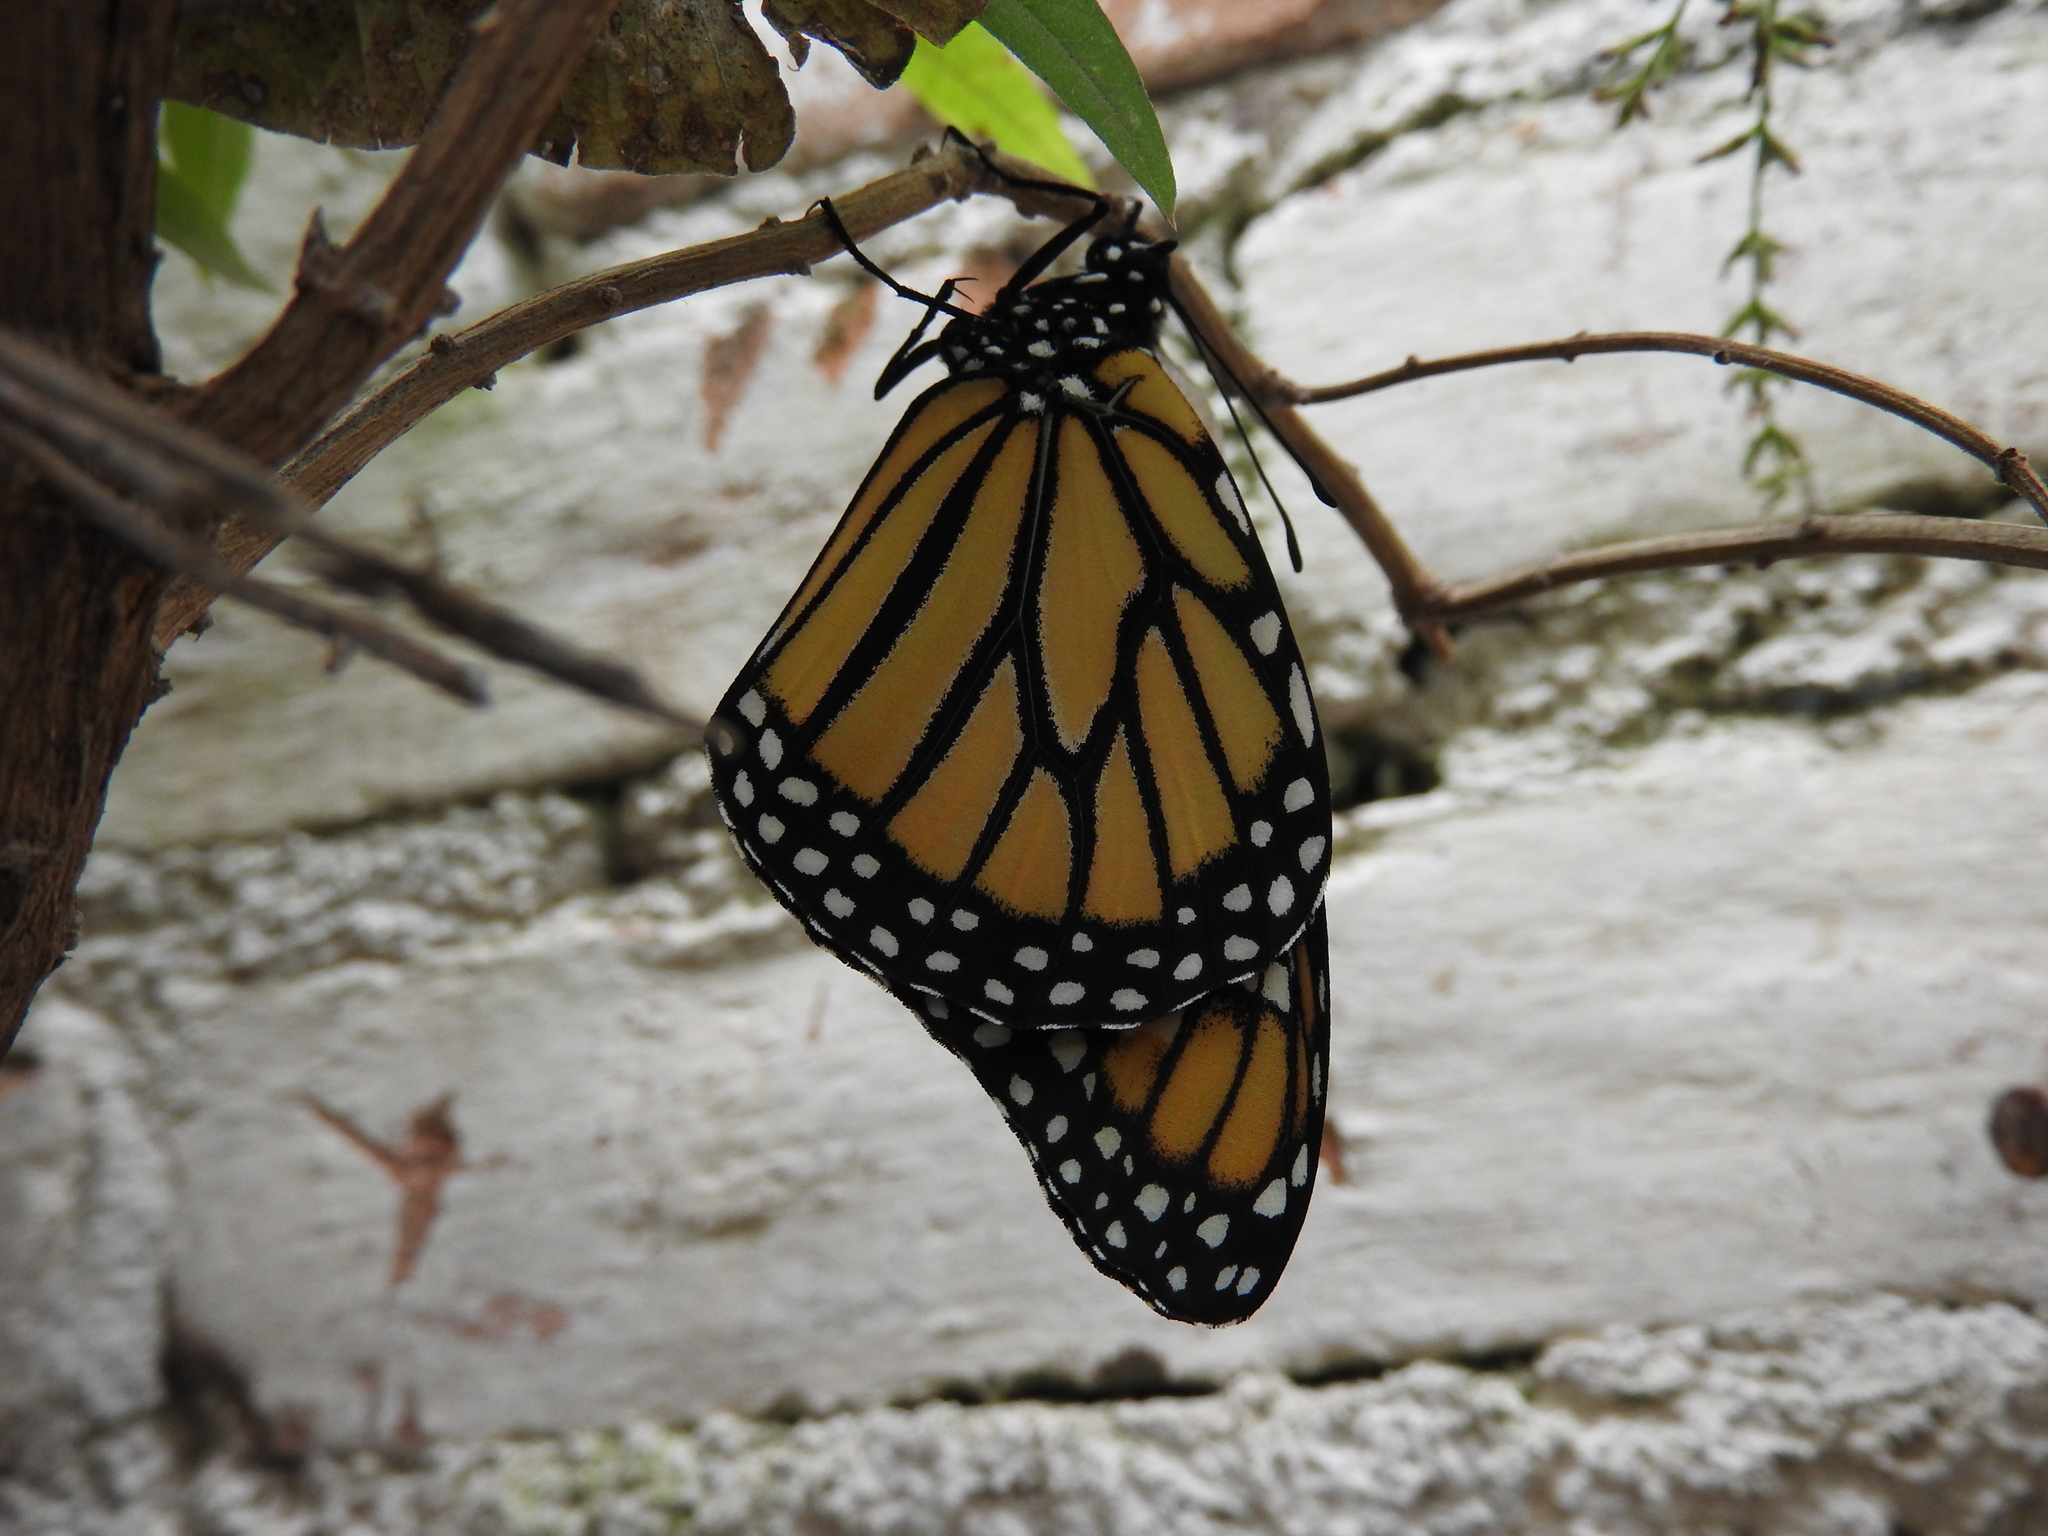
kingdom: Animalia
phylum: Arthropoda
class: Insecta
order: Lepidoptera
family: Nymphalidae
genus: Danaus
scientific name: Danaus plexippus
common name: Monarch
